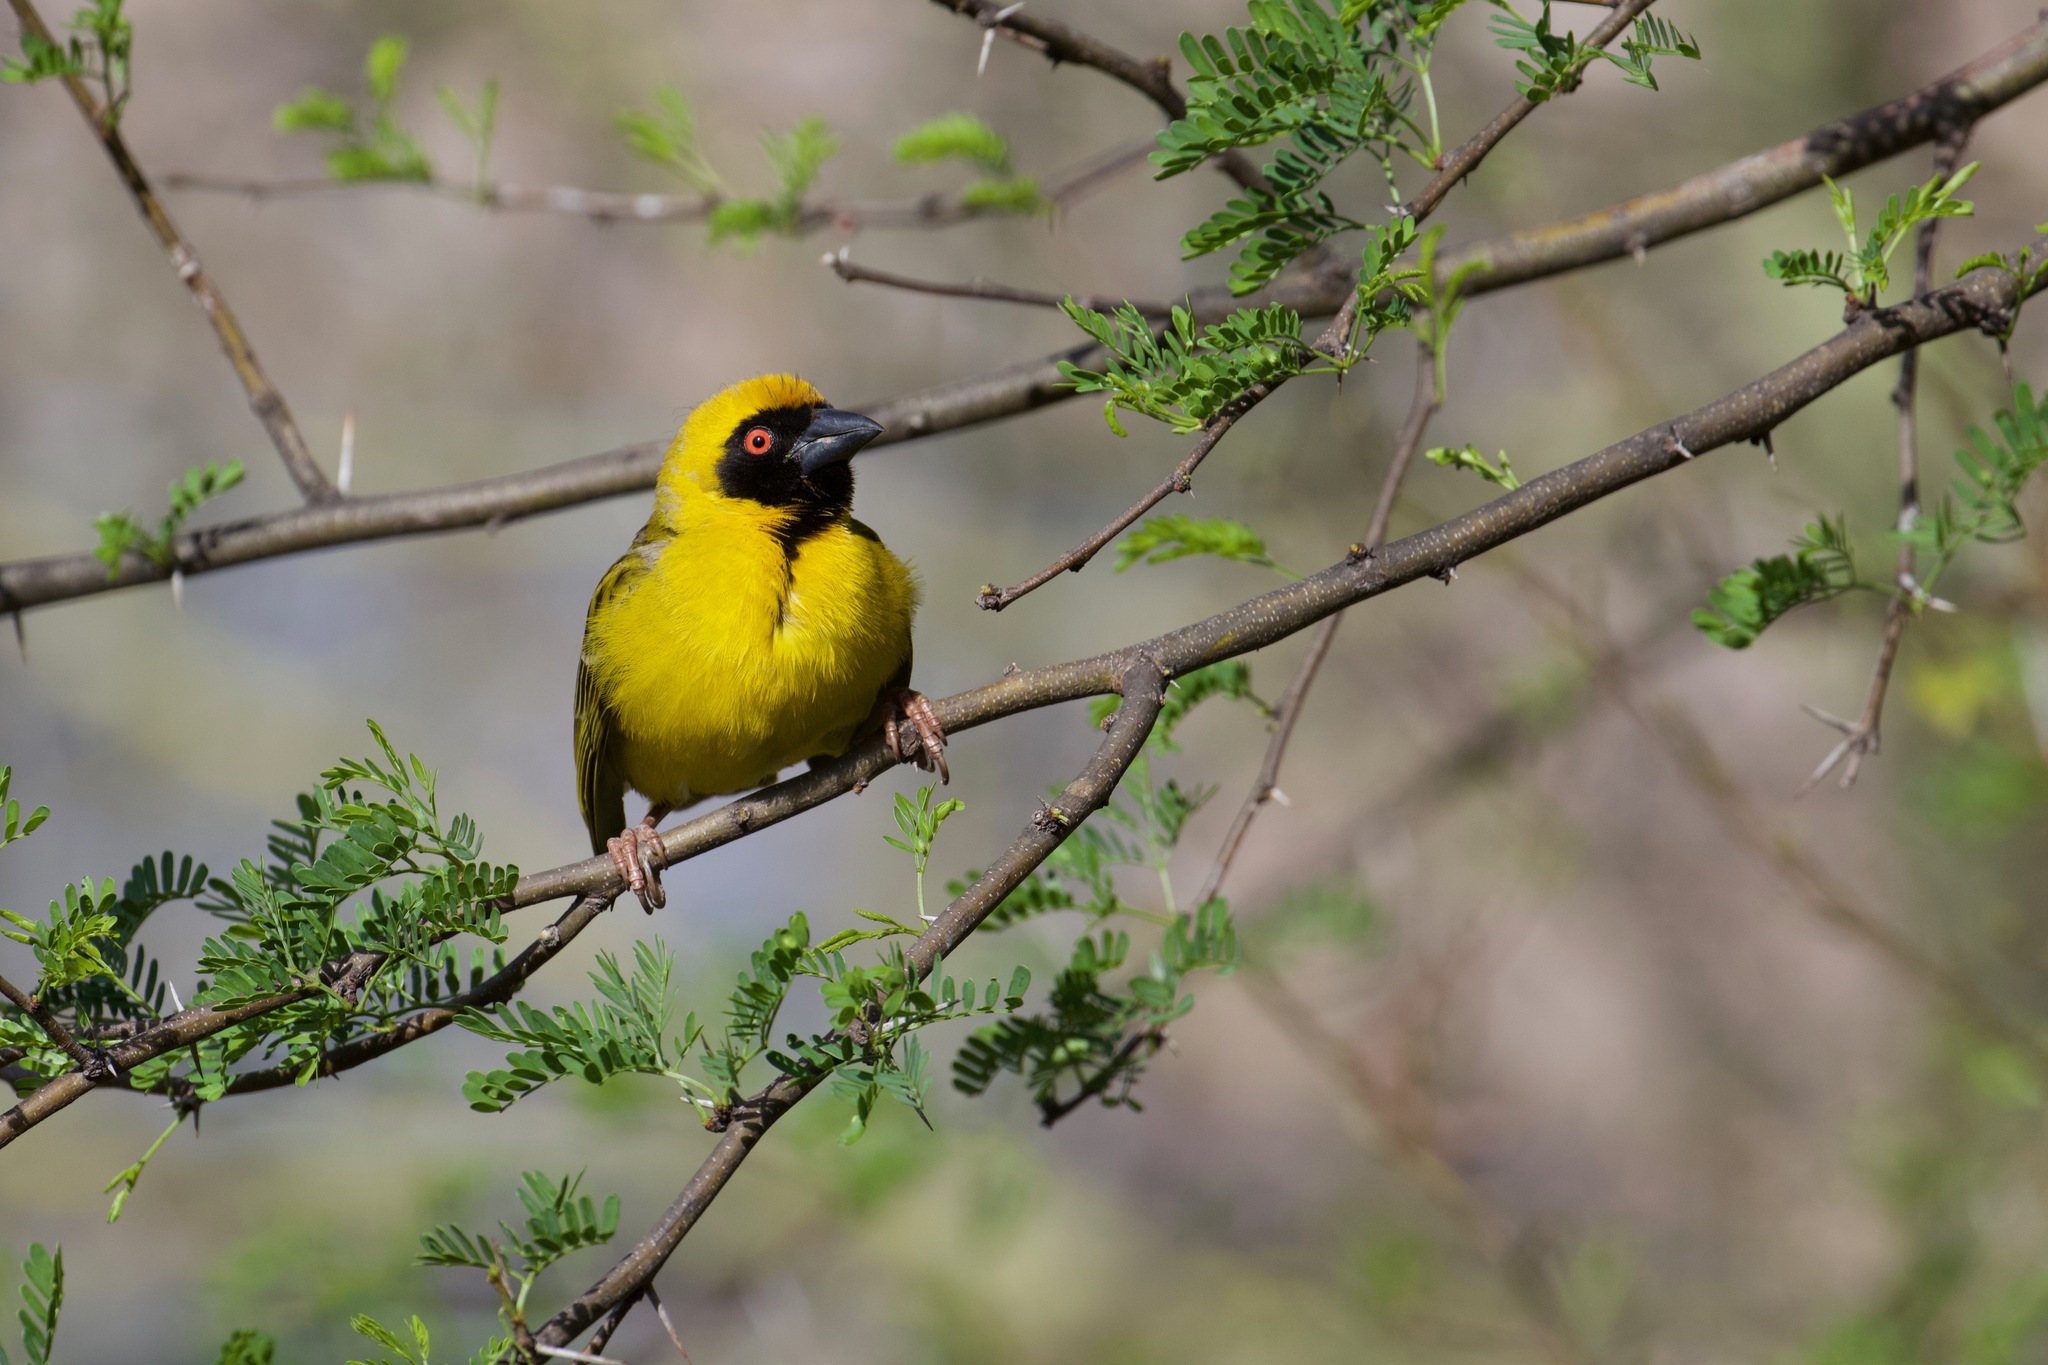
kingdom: Animalia
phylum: Chordata
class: Aves
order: Passeriformes
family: Ploceidae
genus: Ploceus
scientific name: Ploceus velatus
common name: Southern masked weaver
